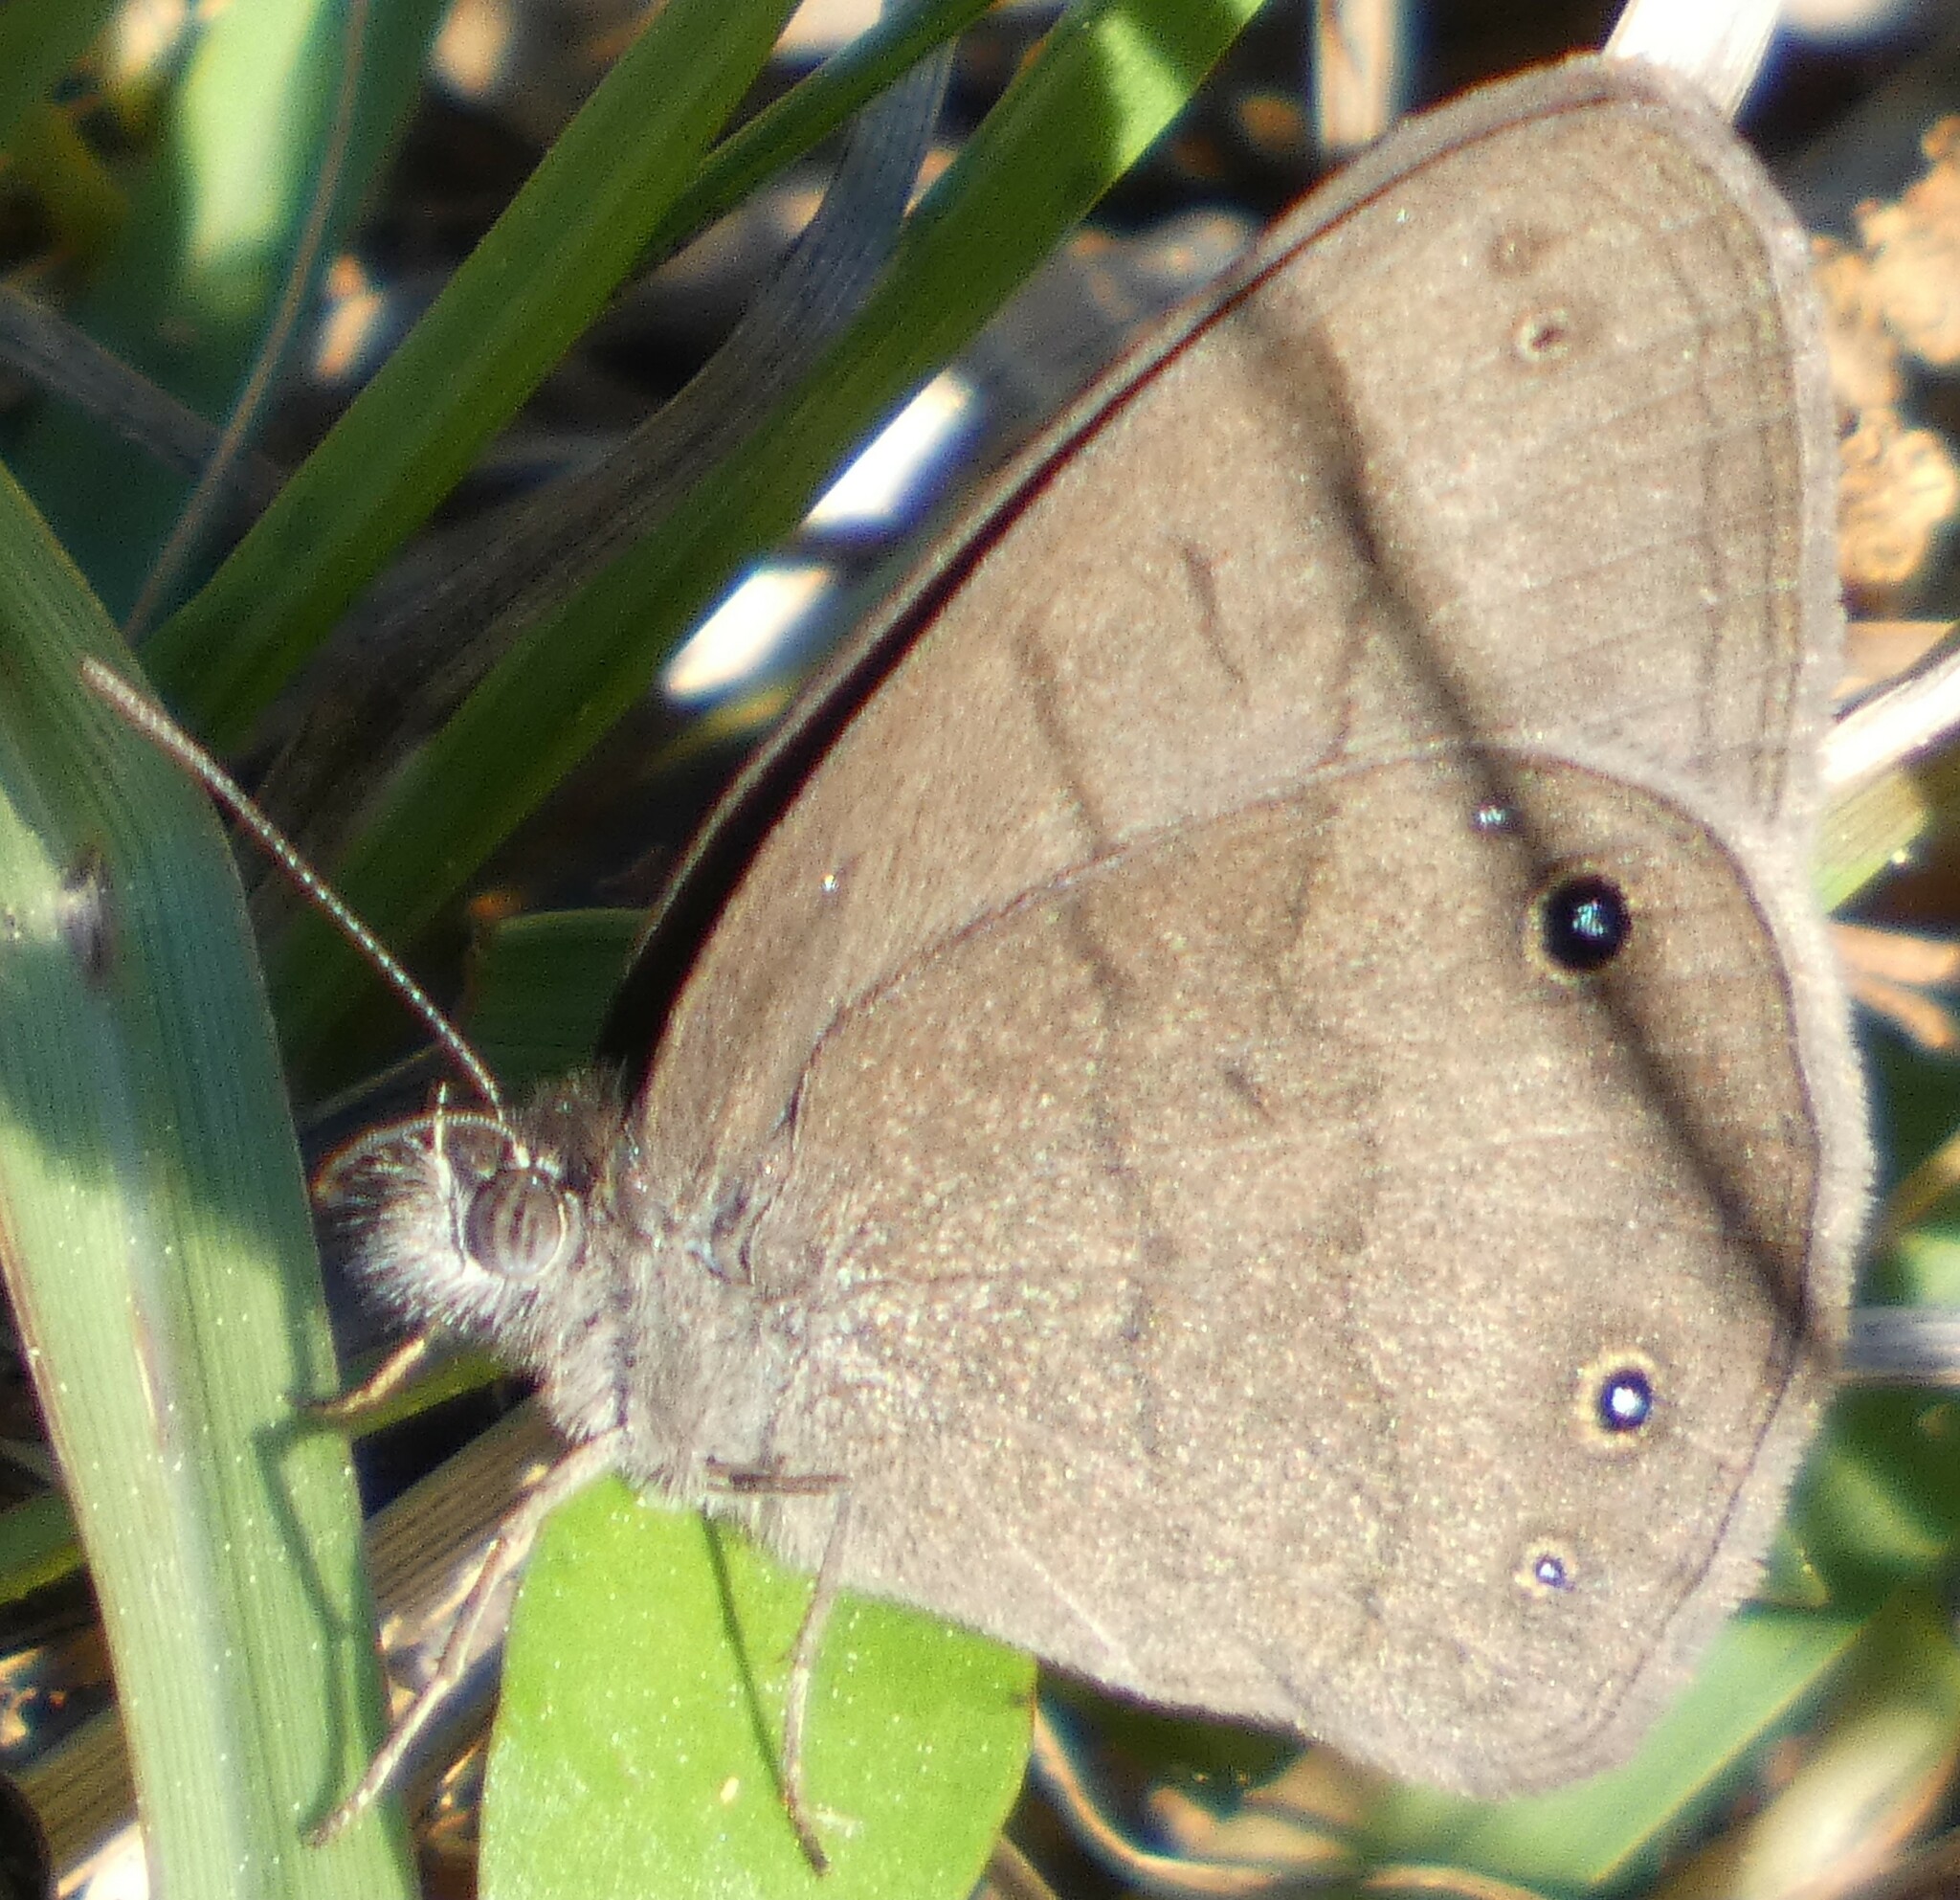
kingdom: Animalia
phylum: Arthropoda
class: Insecta
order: Lepidoptera
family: Nymphalidae
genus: Hermeuptychia
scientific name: Hermeuptychia hermes
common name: Hermes satyr
